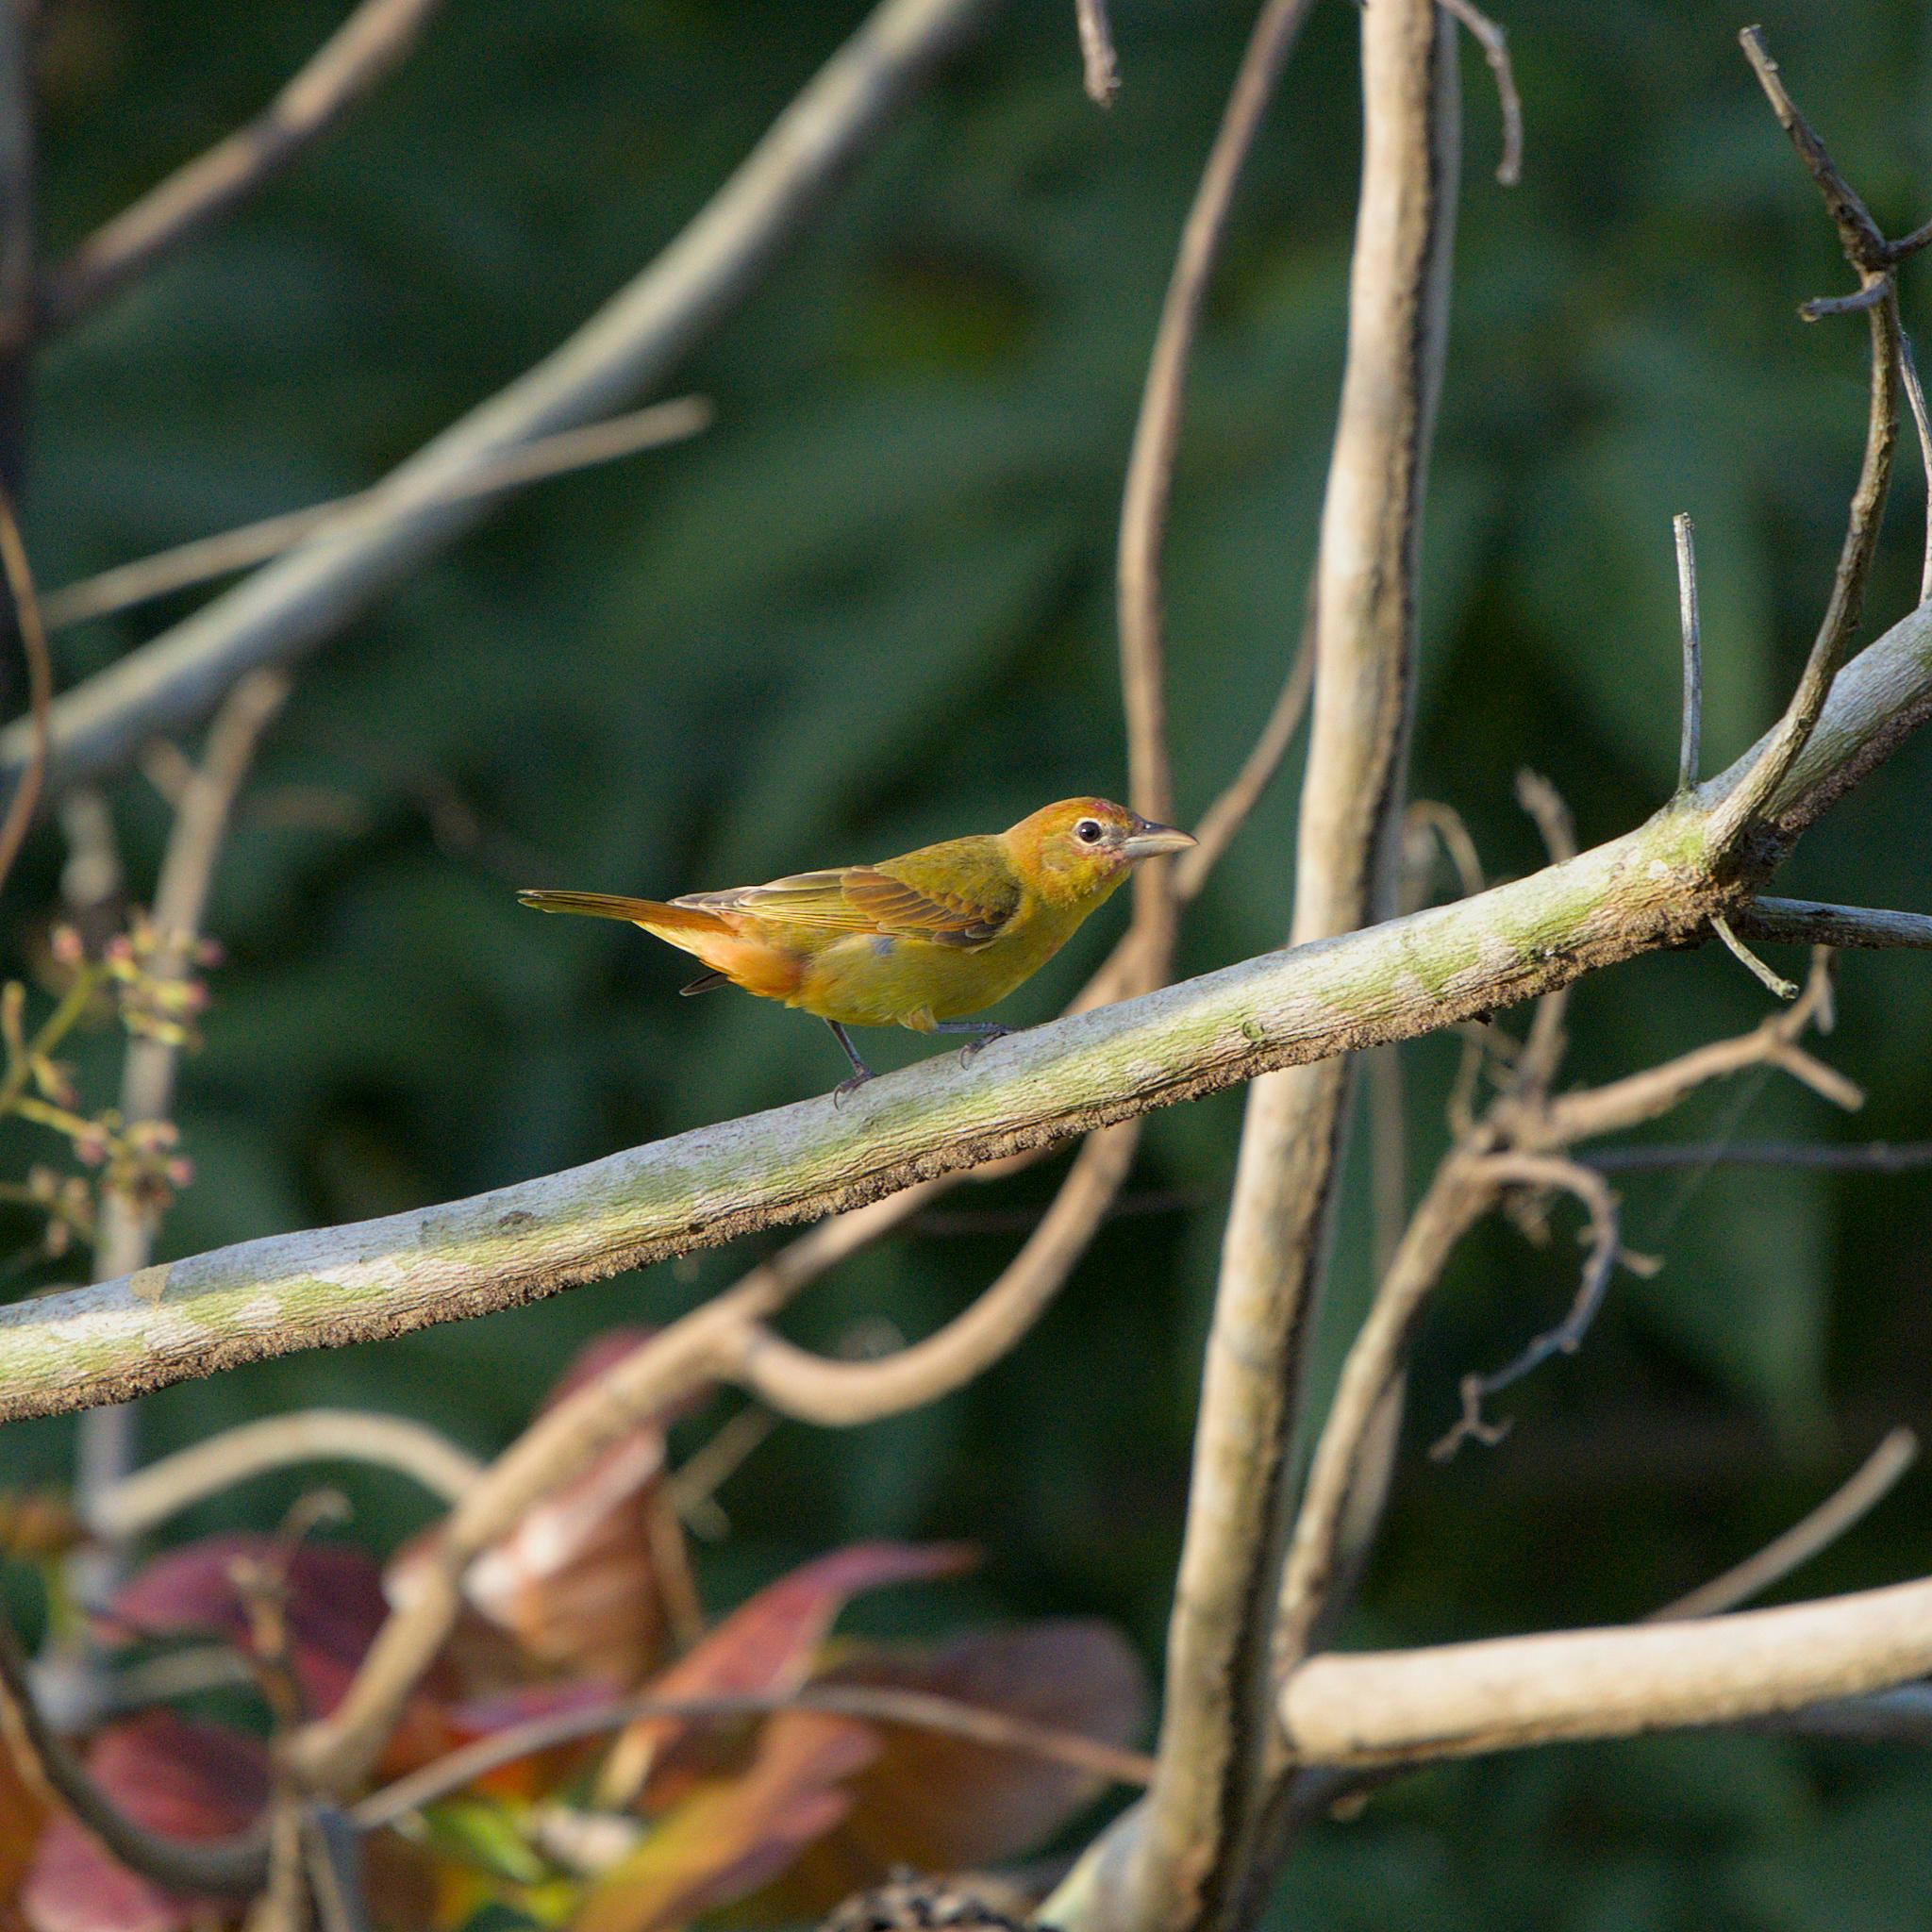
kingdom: Animalia
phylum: Chordata
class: Aves
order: Passeriformes
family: Cardinalidae
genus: Piranga
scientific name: Piranga rubra
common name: Summer tanager
